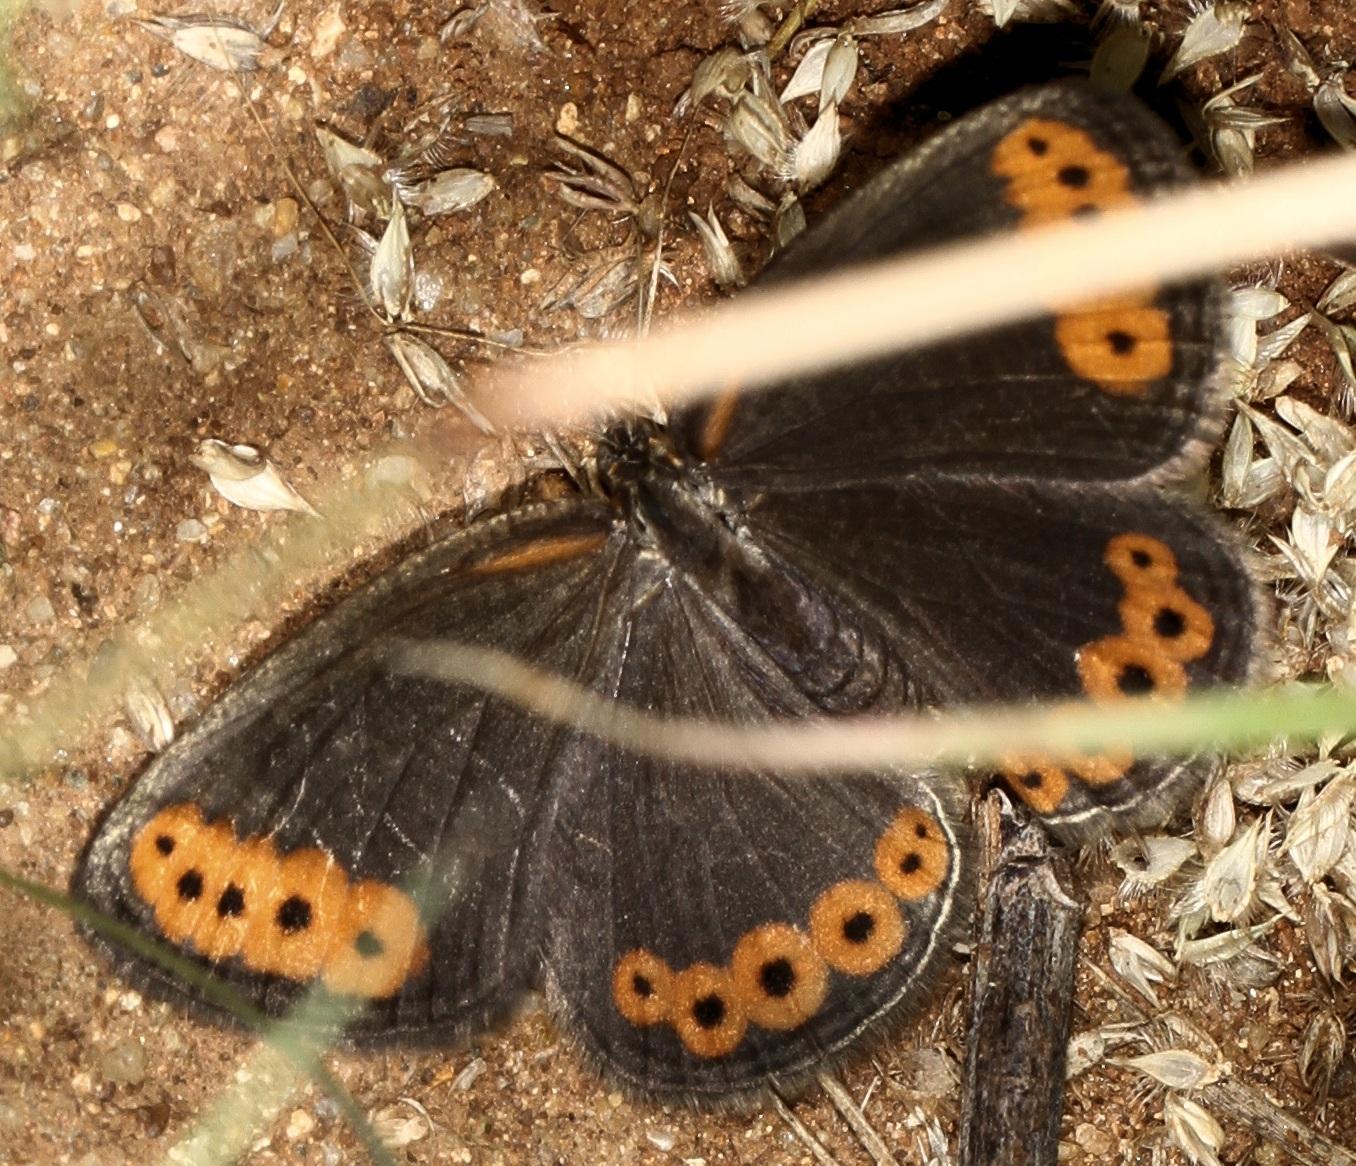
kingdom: Animalia
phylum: Arthropoda
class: Insecta
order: Lepidoptera
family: Nymphalidae
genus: Physcaeneura
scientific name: Physcaeneura panda
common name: Dark-webbed ringlet
